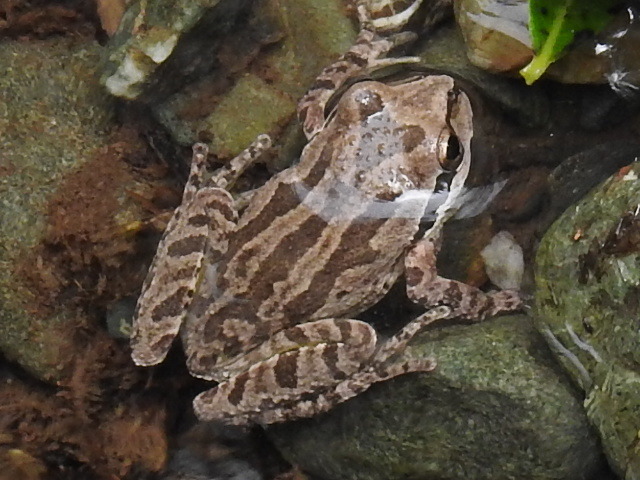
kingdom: Animalia
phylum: Chordata
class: Amphibia
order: Anura
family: Hylidae
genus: Pseudacris
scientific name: Pseudacris regilla
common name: Pacific chorus frog
